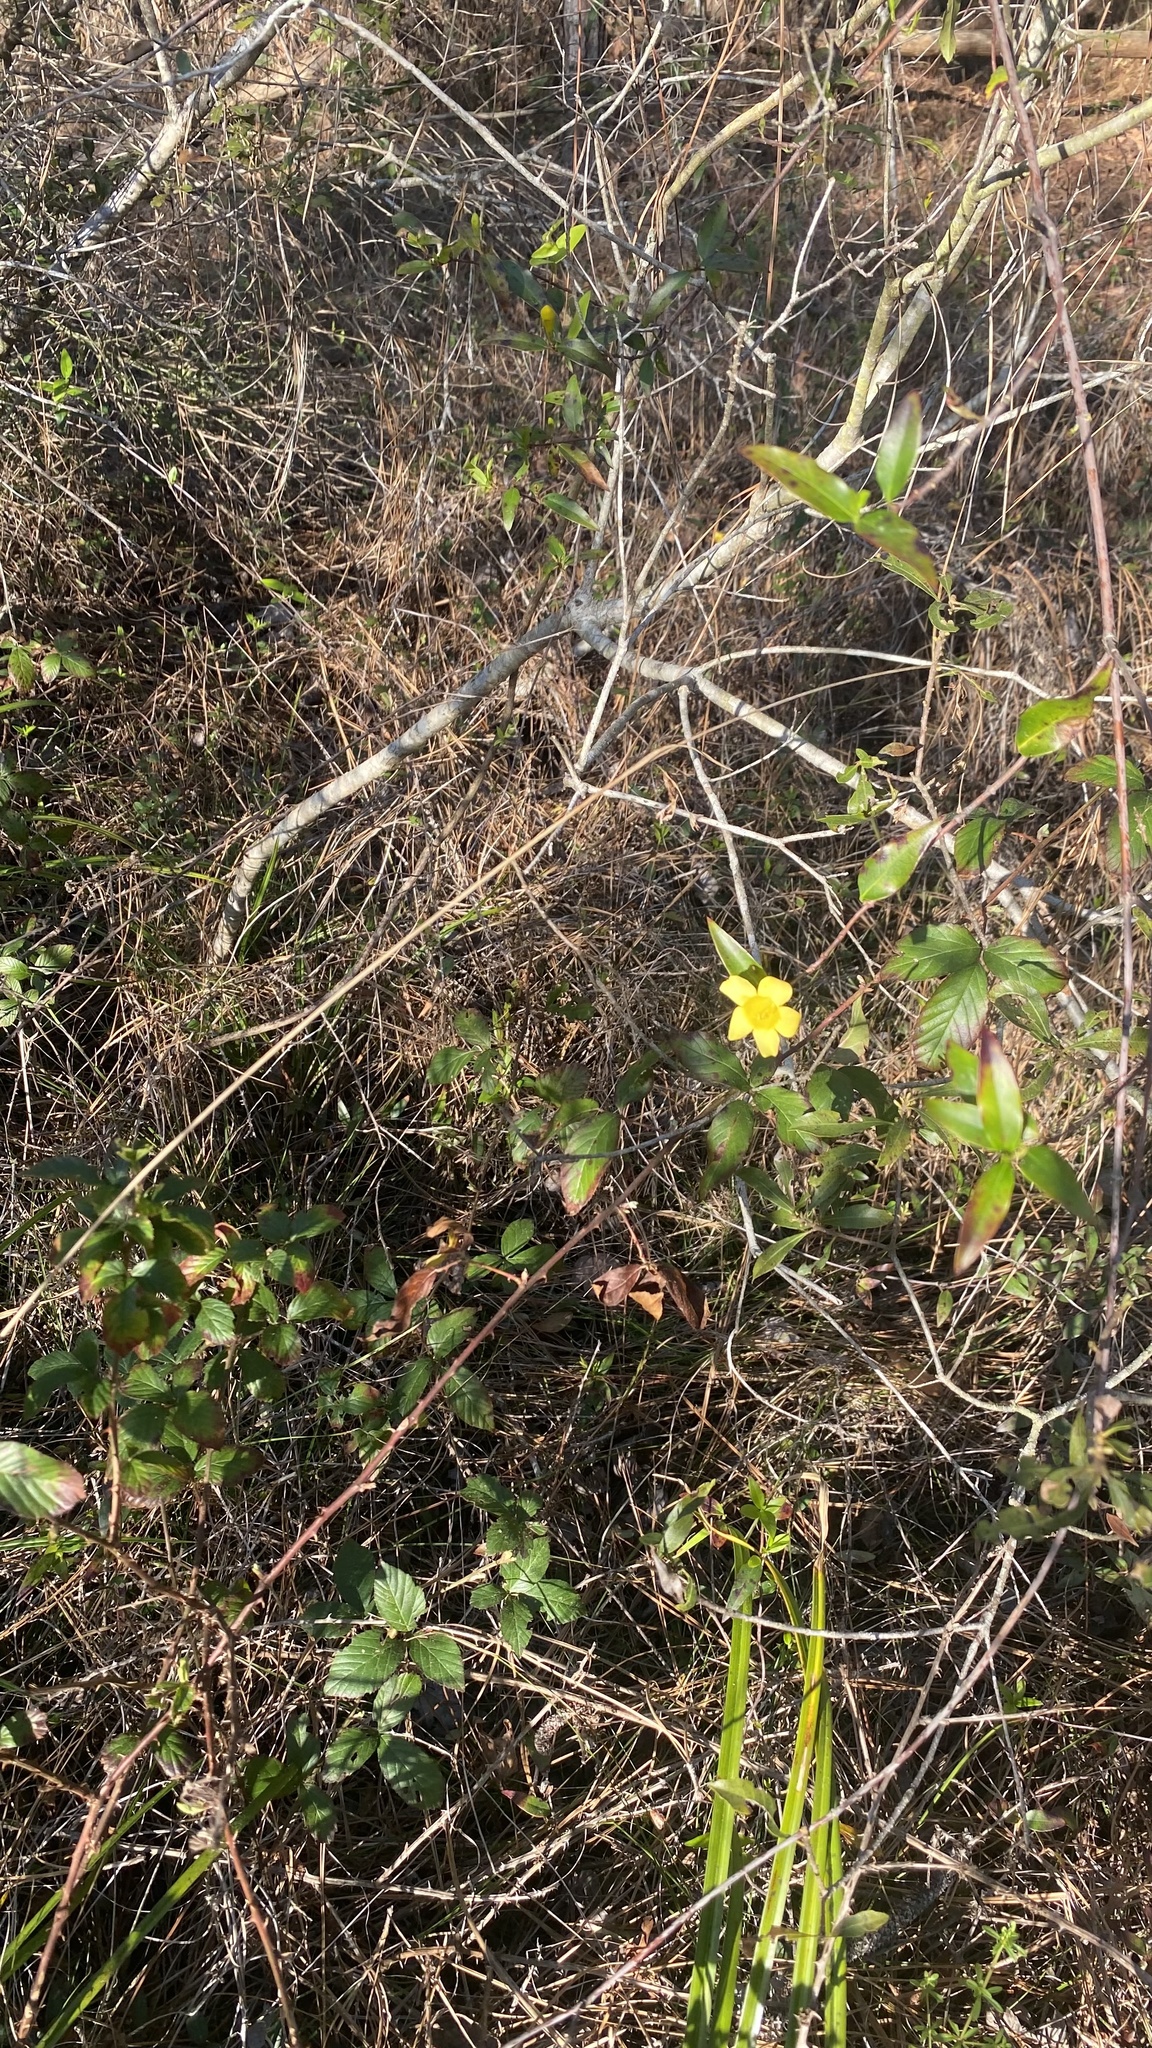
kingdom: Plantae
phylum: Tracheophyta
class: Magnoliopsida
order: Gentianales
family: Gelsemiaceae
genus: Gelsemium
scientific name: Gelsemium sempervirens
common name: Carolina-jasmine
